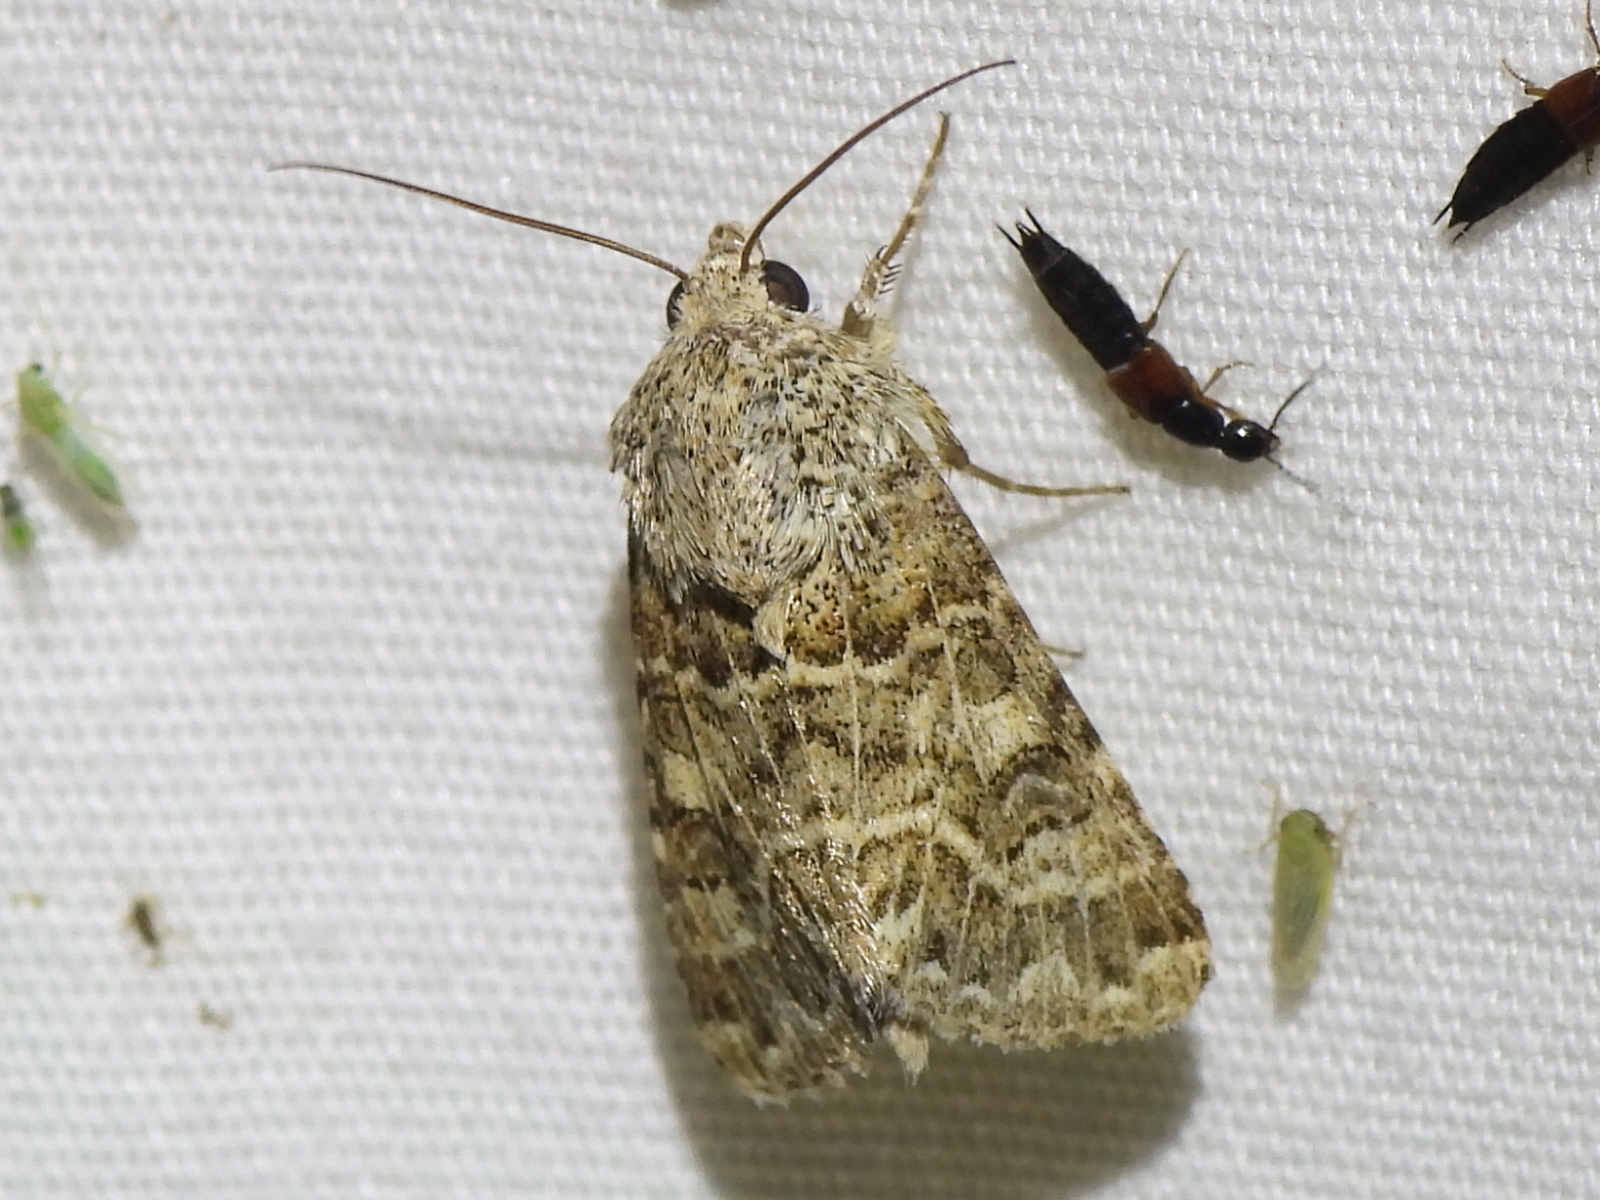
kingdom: Animalia
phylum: Arthropoda
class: Insecta
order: Lepidoptera
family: Noctuidae
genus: Schinia
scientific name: Schinia tertia
